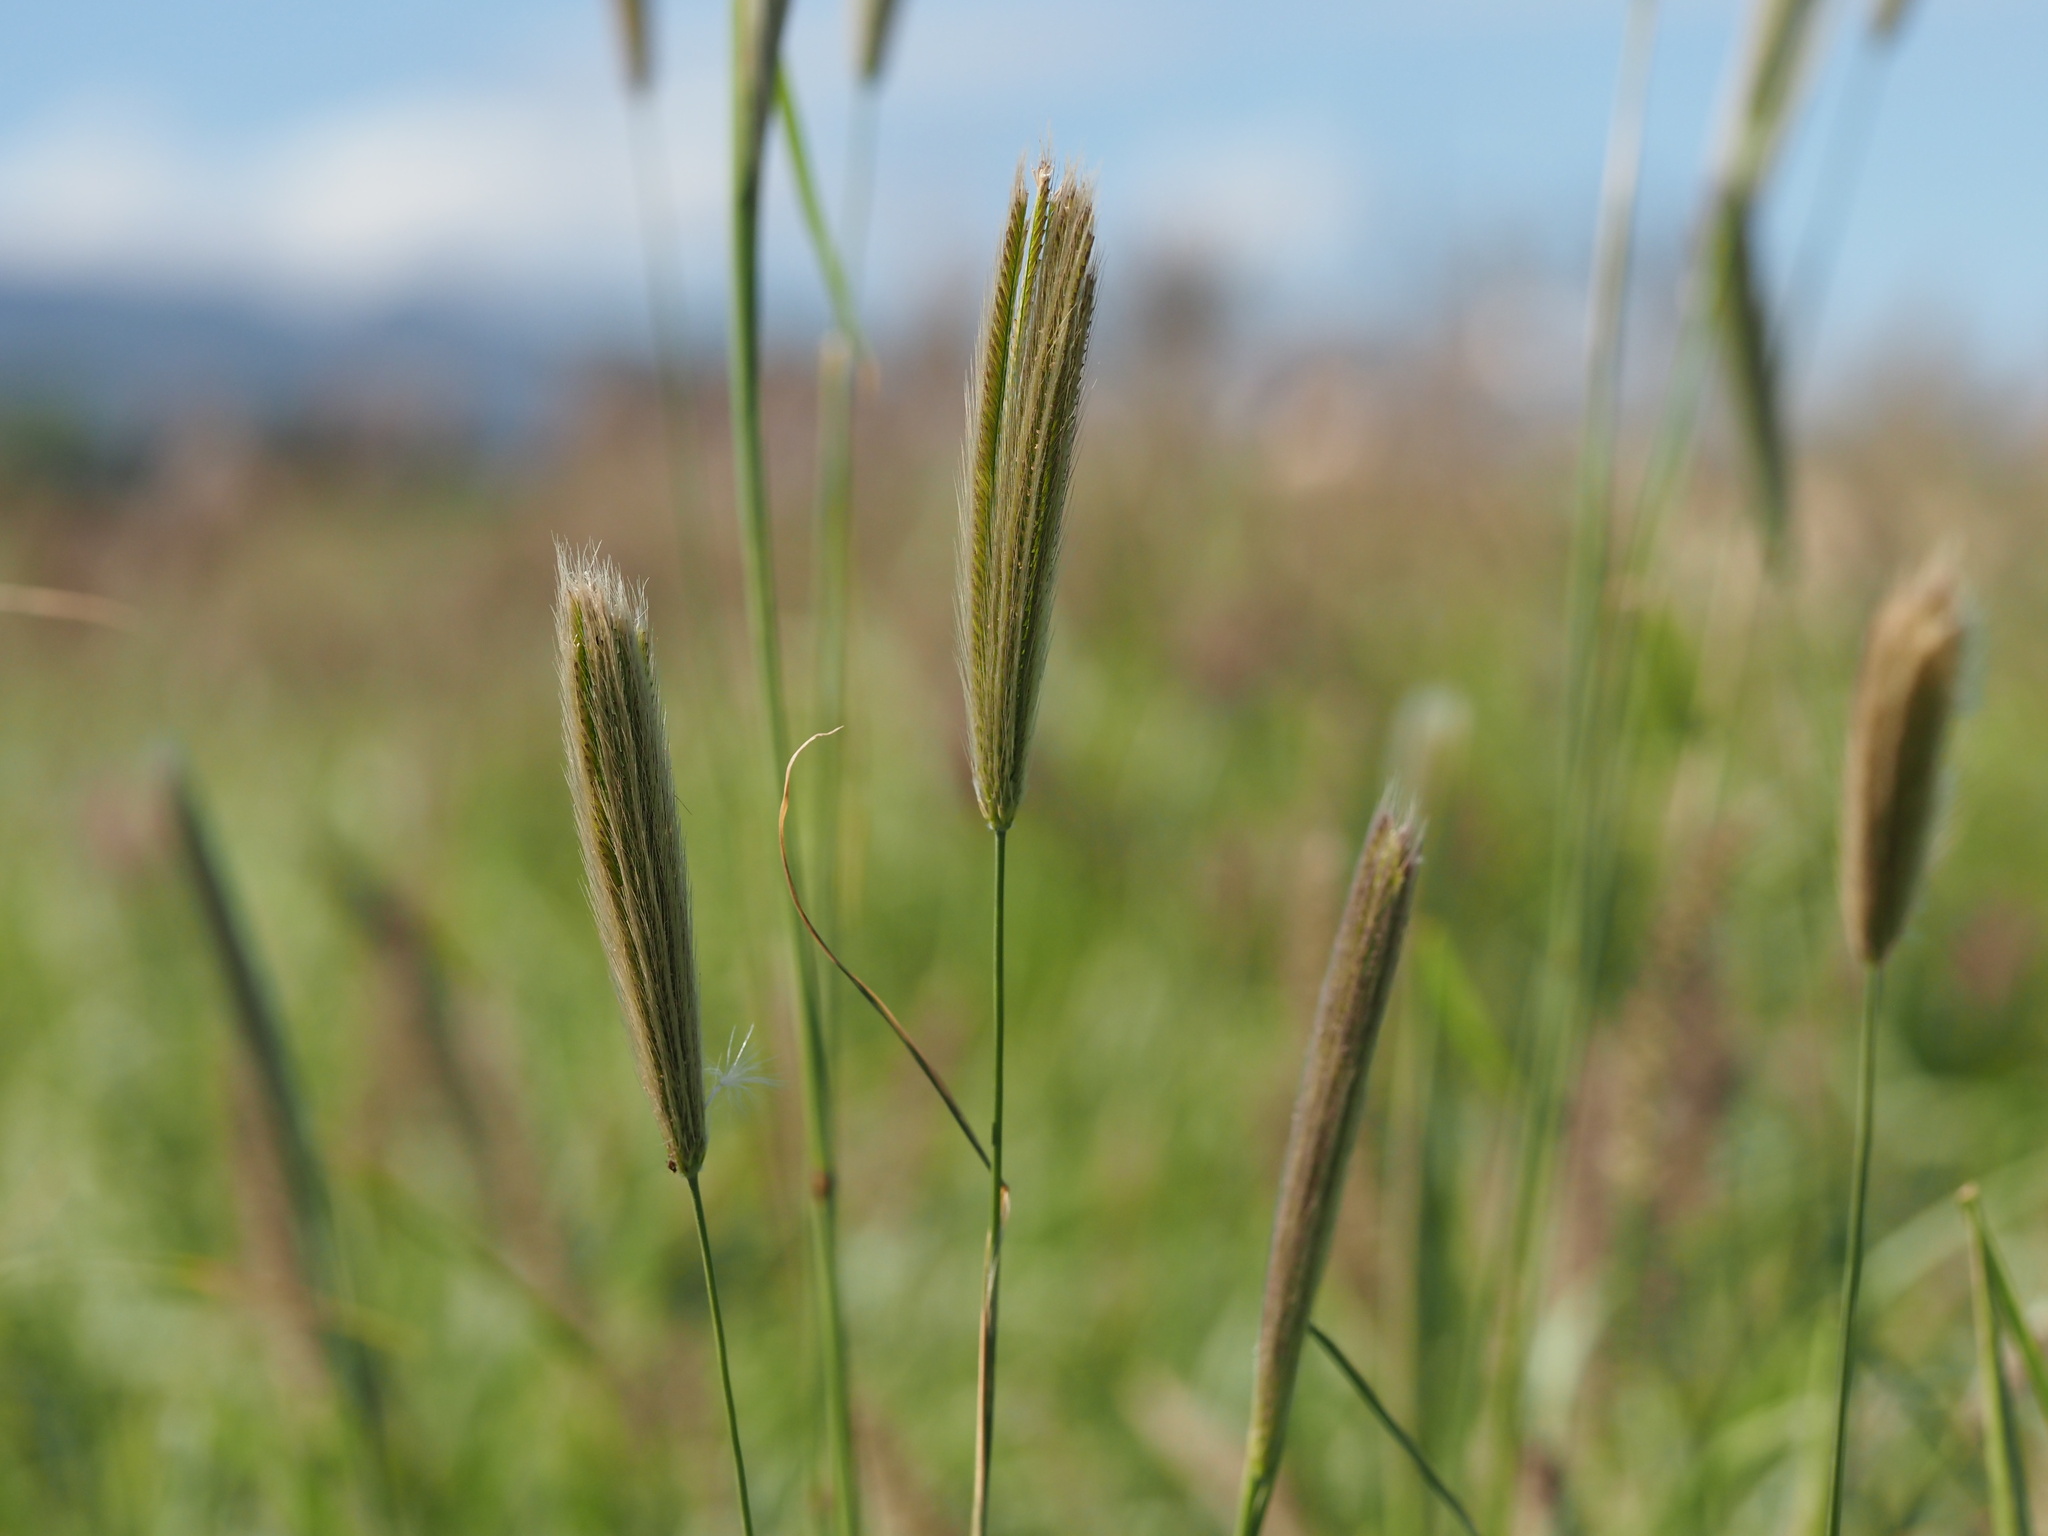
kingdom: Plantae
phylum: Tracheophyta
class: Liliopsida
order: Poales
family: Poaceae
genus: Chloris
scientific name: Chloris virgata
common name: Feathery rhodes-grass
